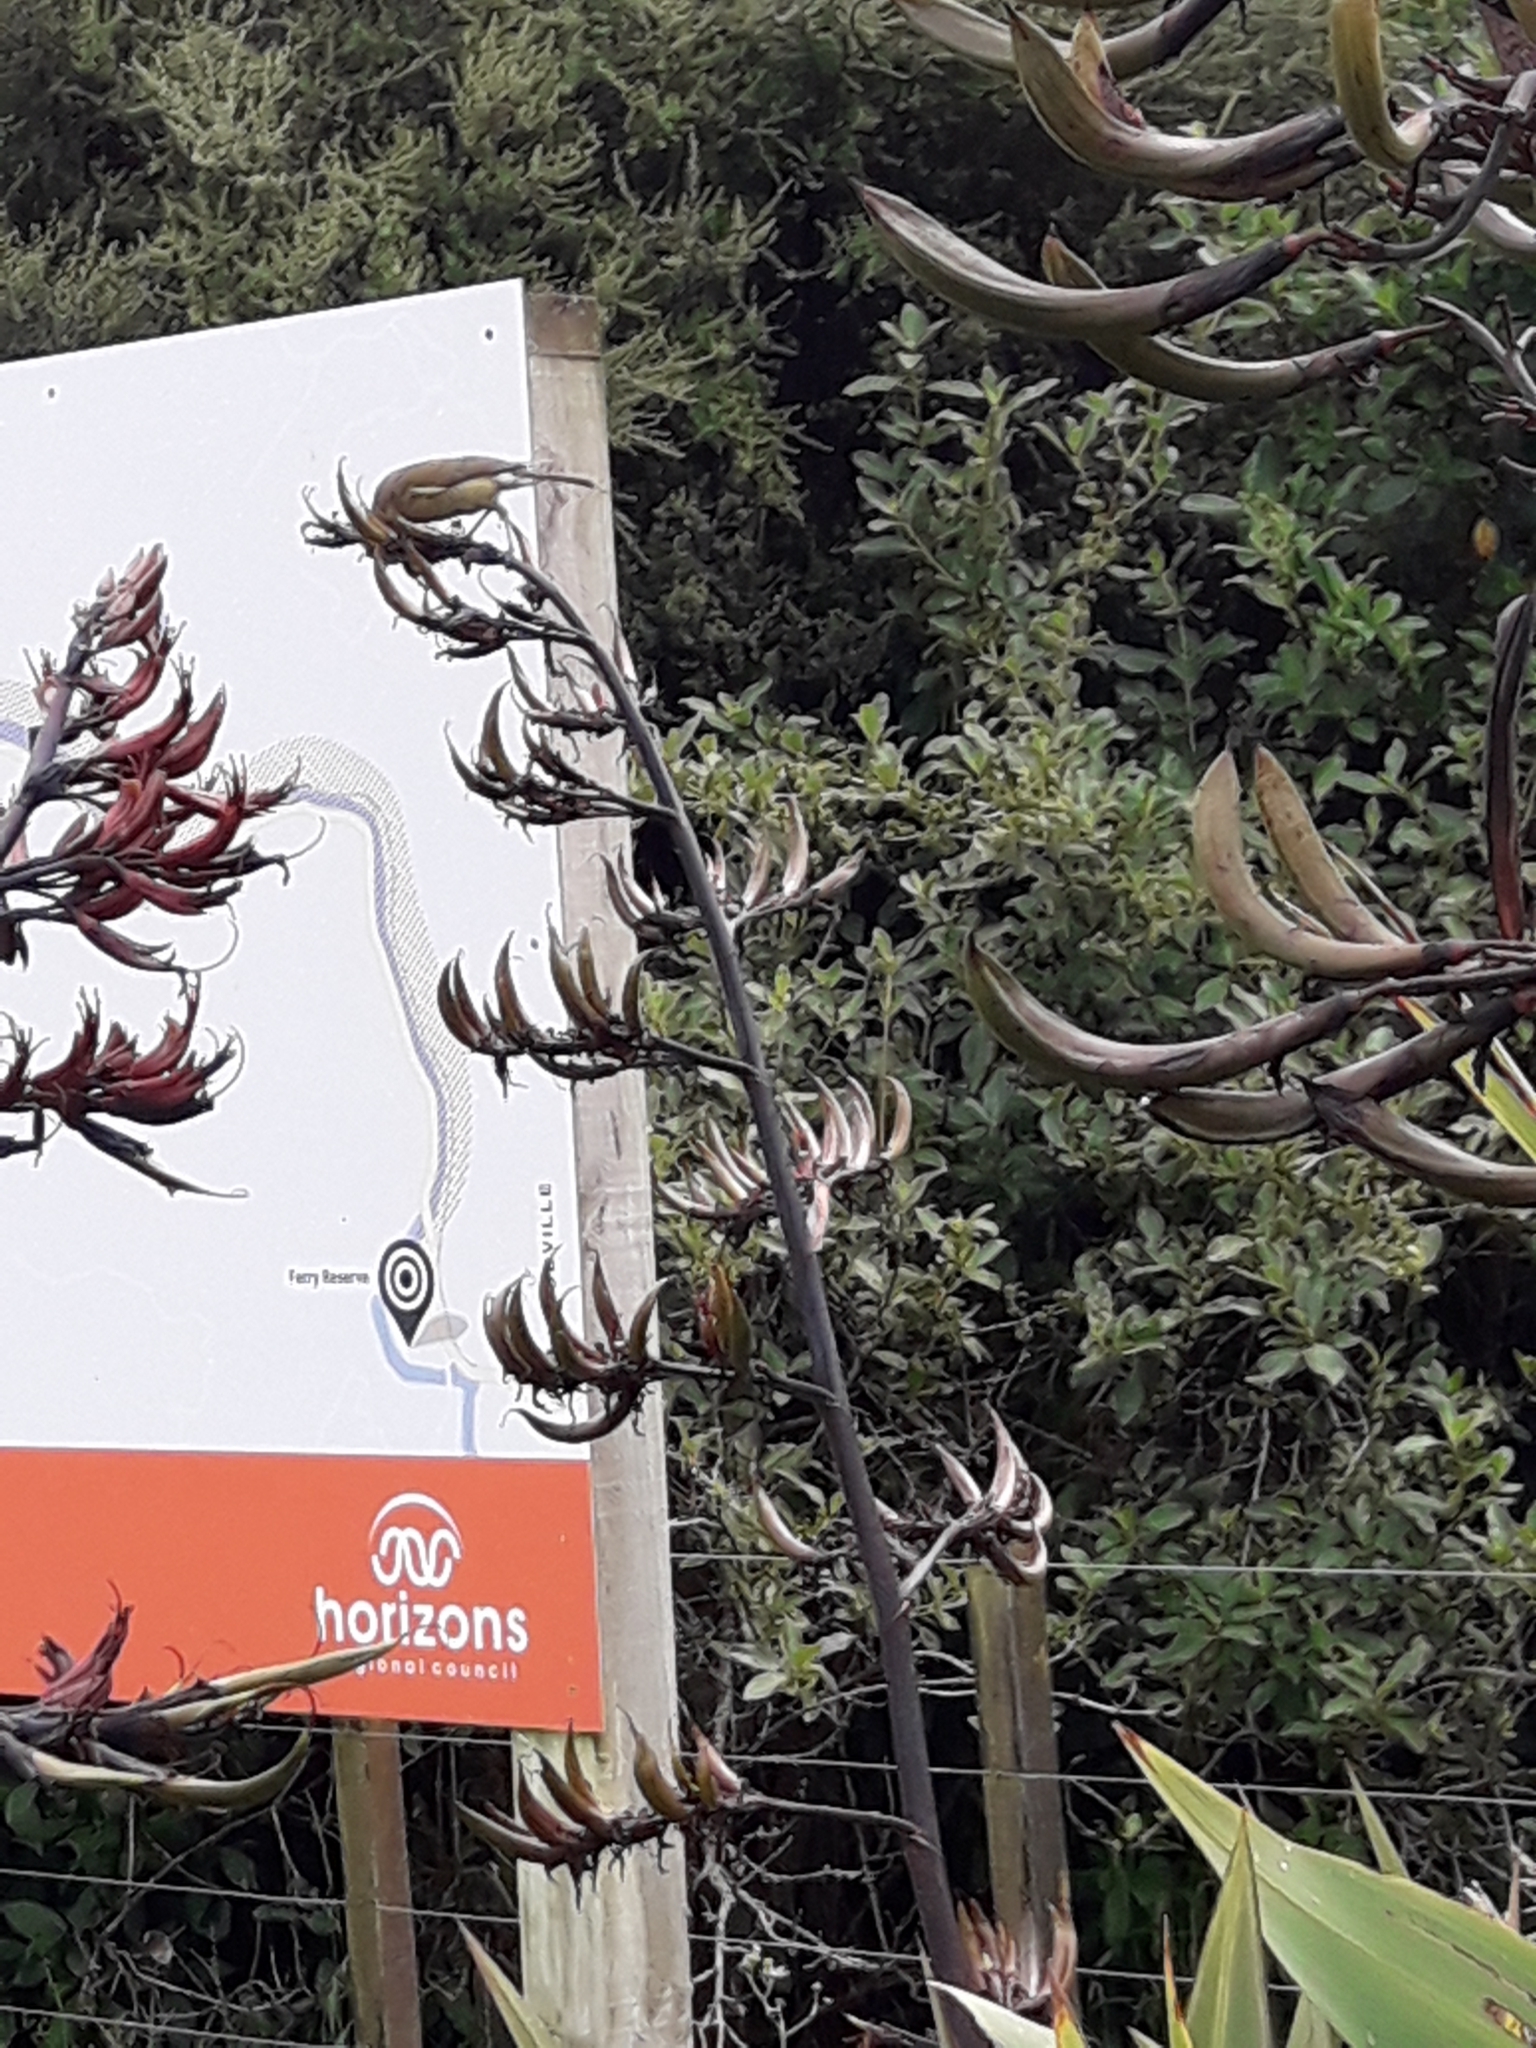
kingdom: Animalia
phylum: Chordata
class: Aves
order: Passeriformes
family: Meliphagidae
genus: Anthornis
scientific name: Anthornis melanura
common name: New zealand bellbird
